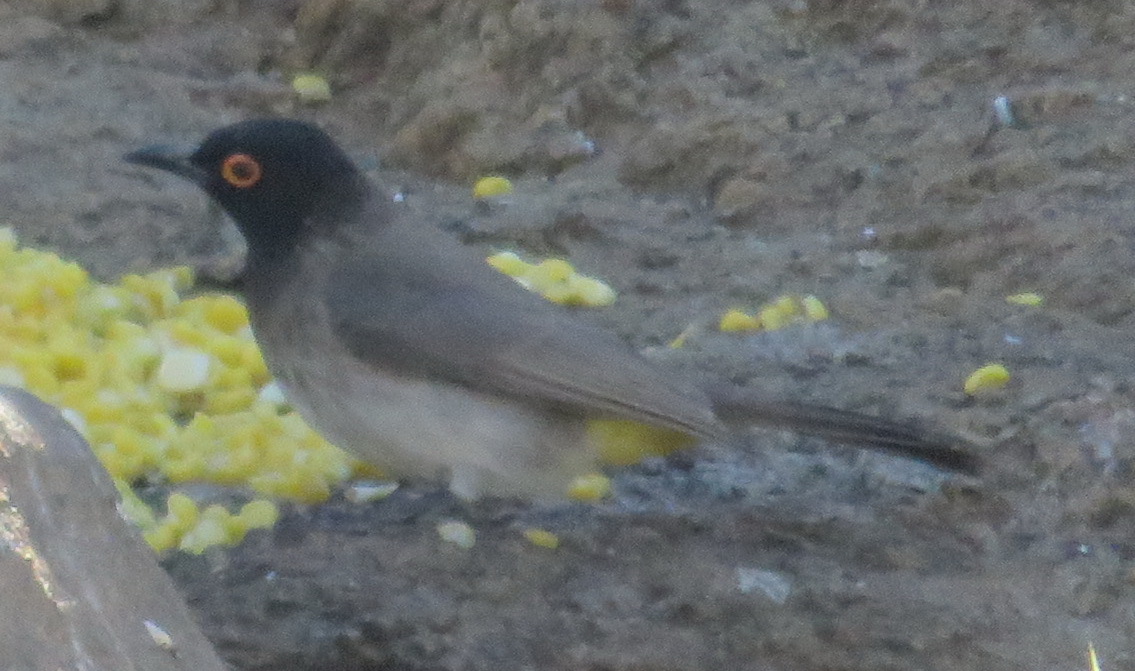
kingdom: Animalia
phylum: Chordata
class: Aves
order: Passeriformes
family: Pycnonotidae
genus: Pycnonotus
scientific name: Pycnonotus nigricans
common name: African red-eyed bulbul
